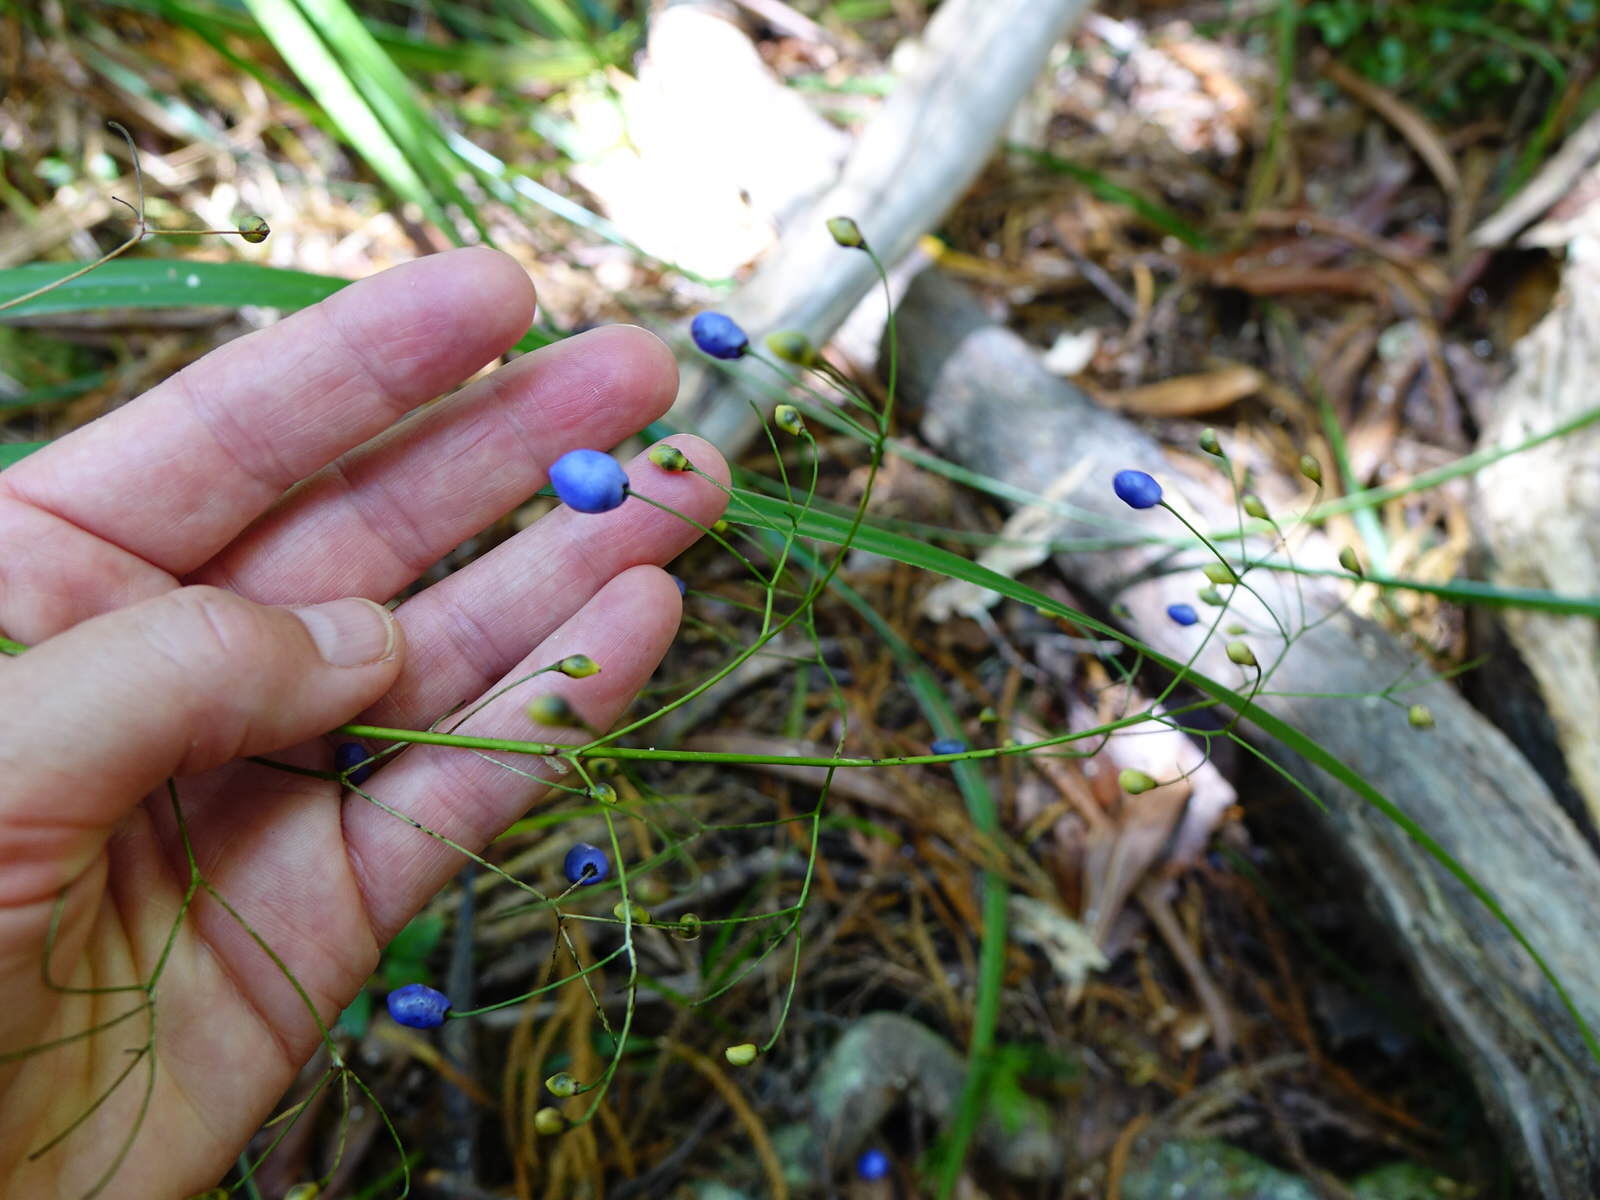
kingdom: Plantae
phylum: Tracheophyta
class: Liliopsida
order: Asparagales
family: Asphodelaceae
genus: Dianella
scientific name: Dianella nigra
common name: New zealand-blueberry
